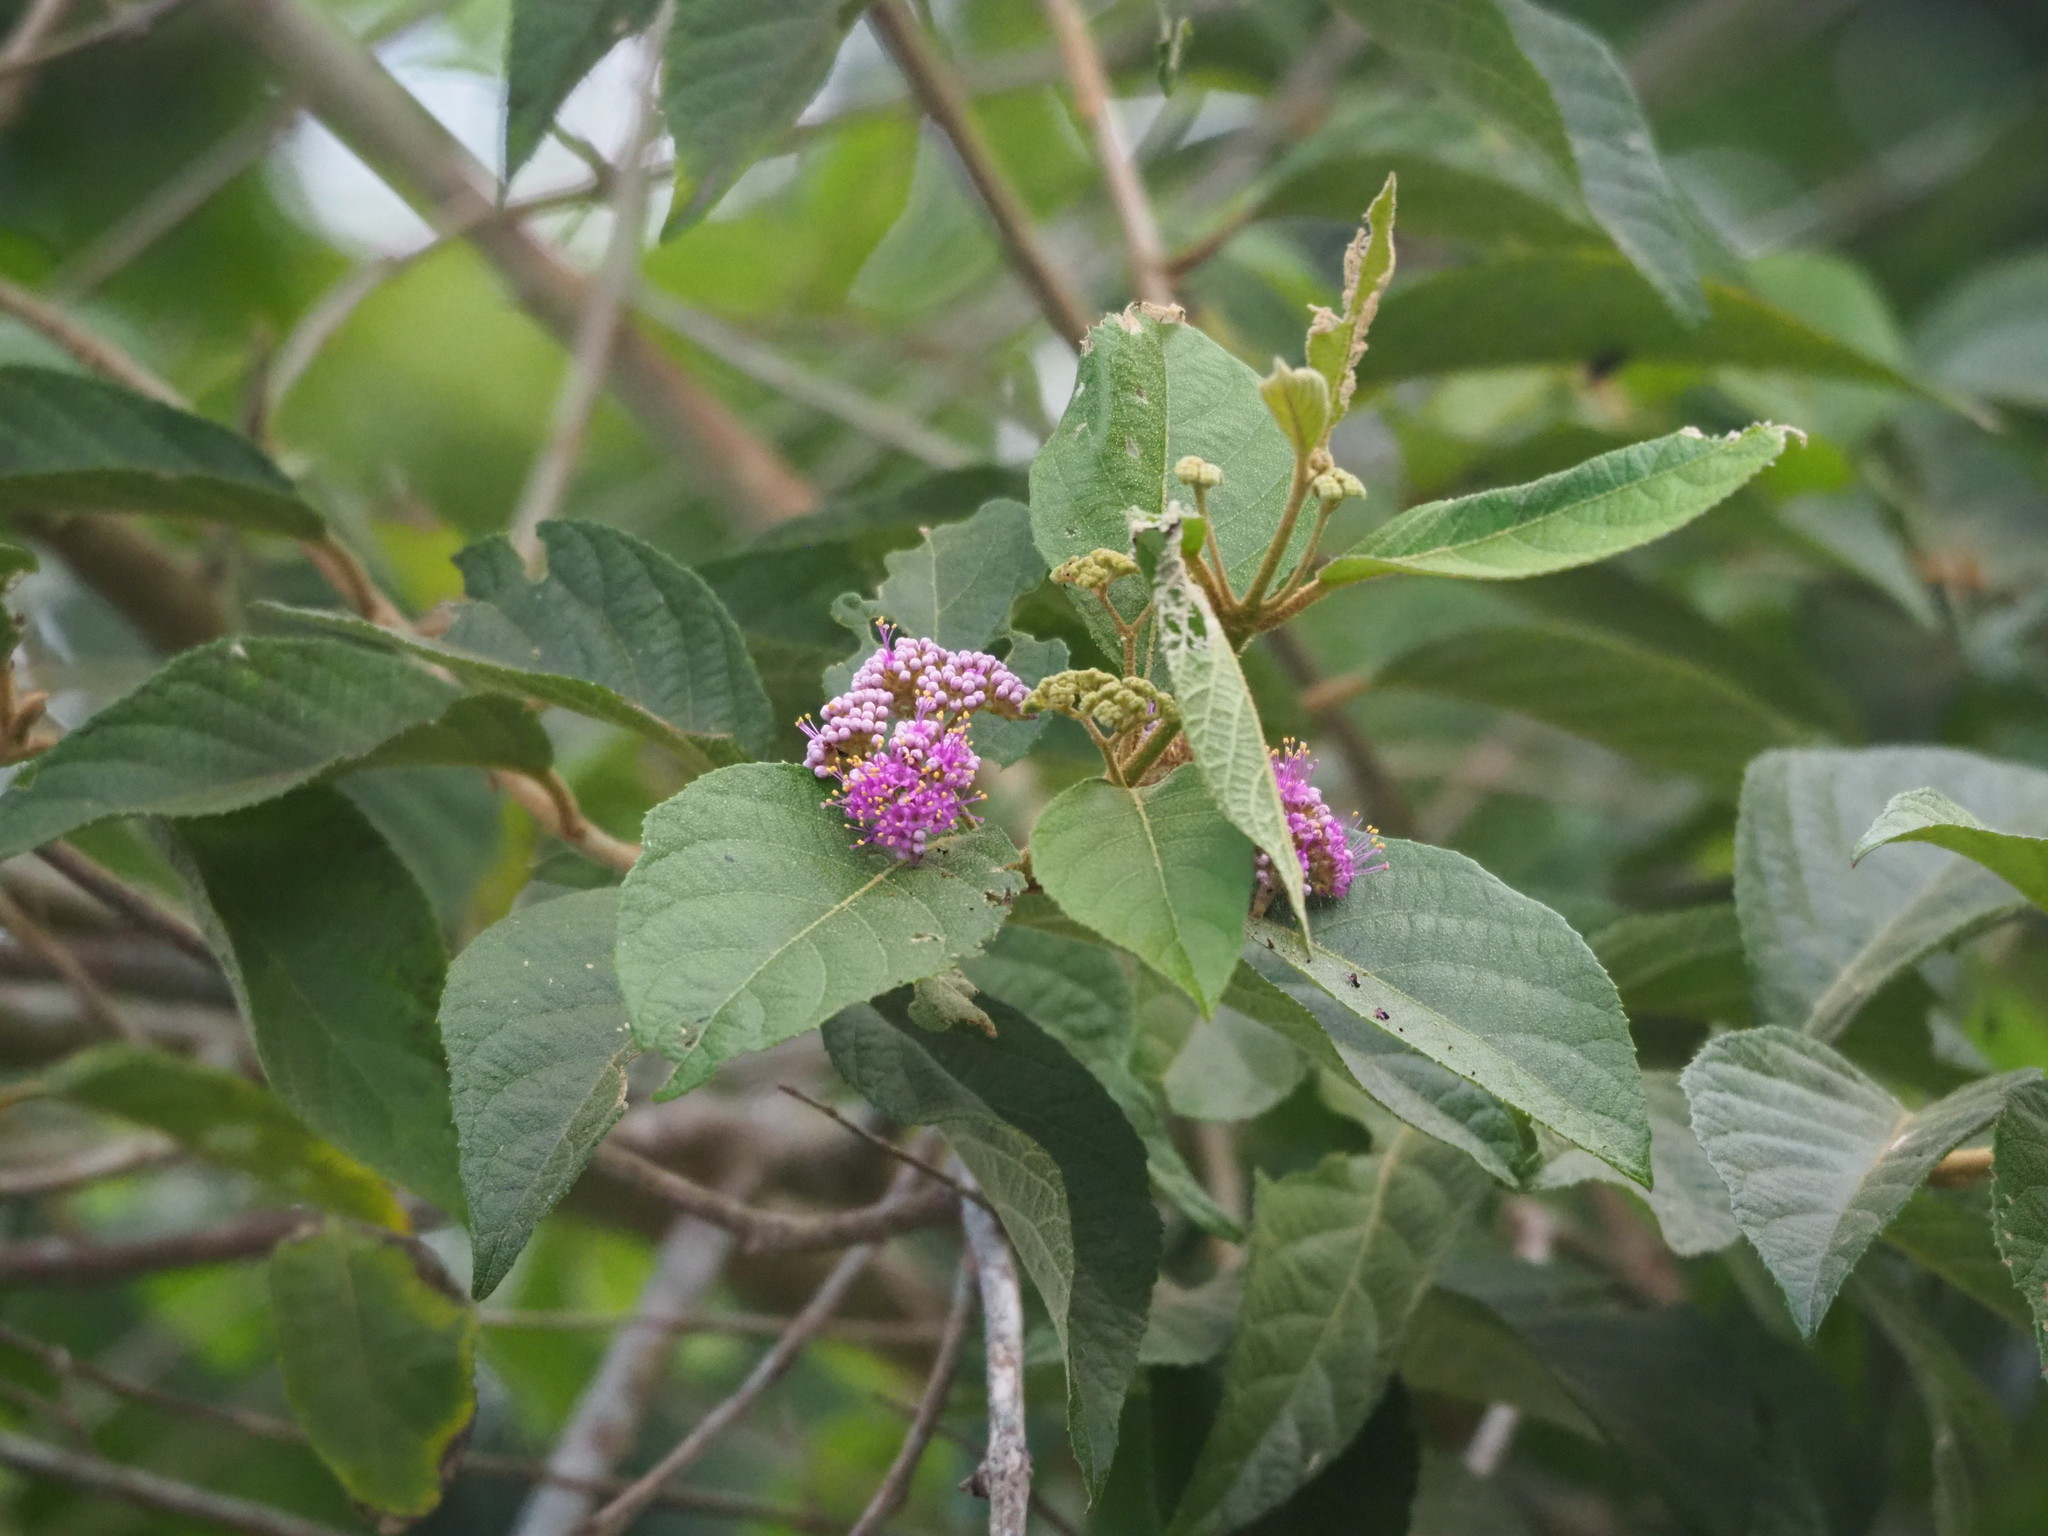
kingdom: Plantae
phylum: Tracheophyta
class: Magnoliopsida
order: Lamiales
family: Lamiaceae
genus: Callicarpa
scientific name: Callicarpa pedunculata
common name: Velvetleaf
